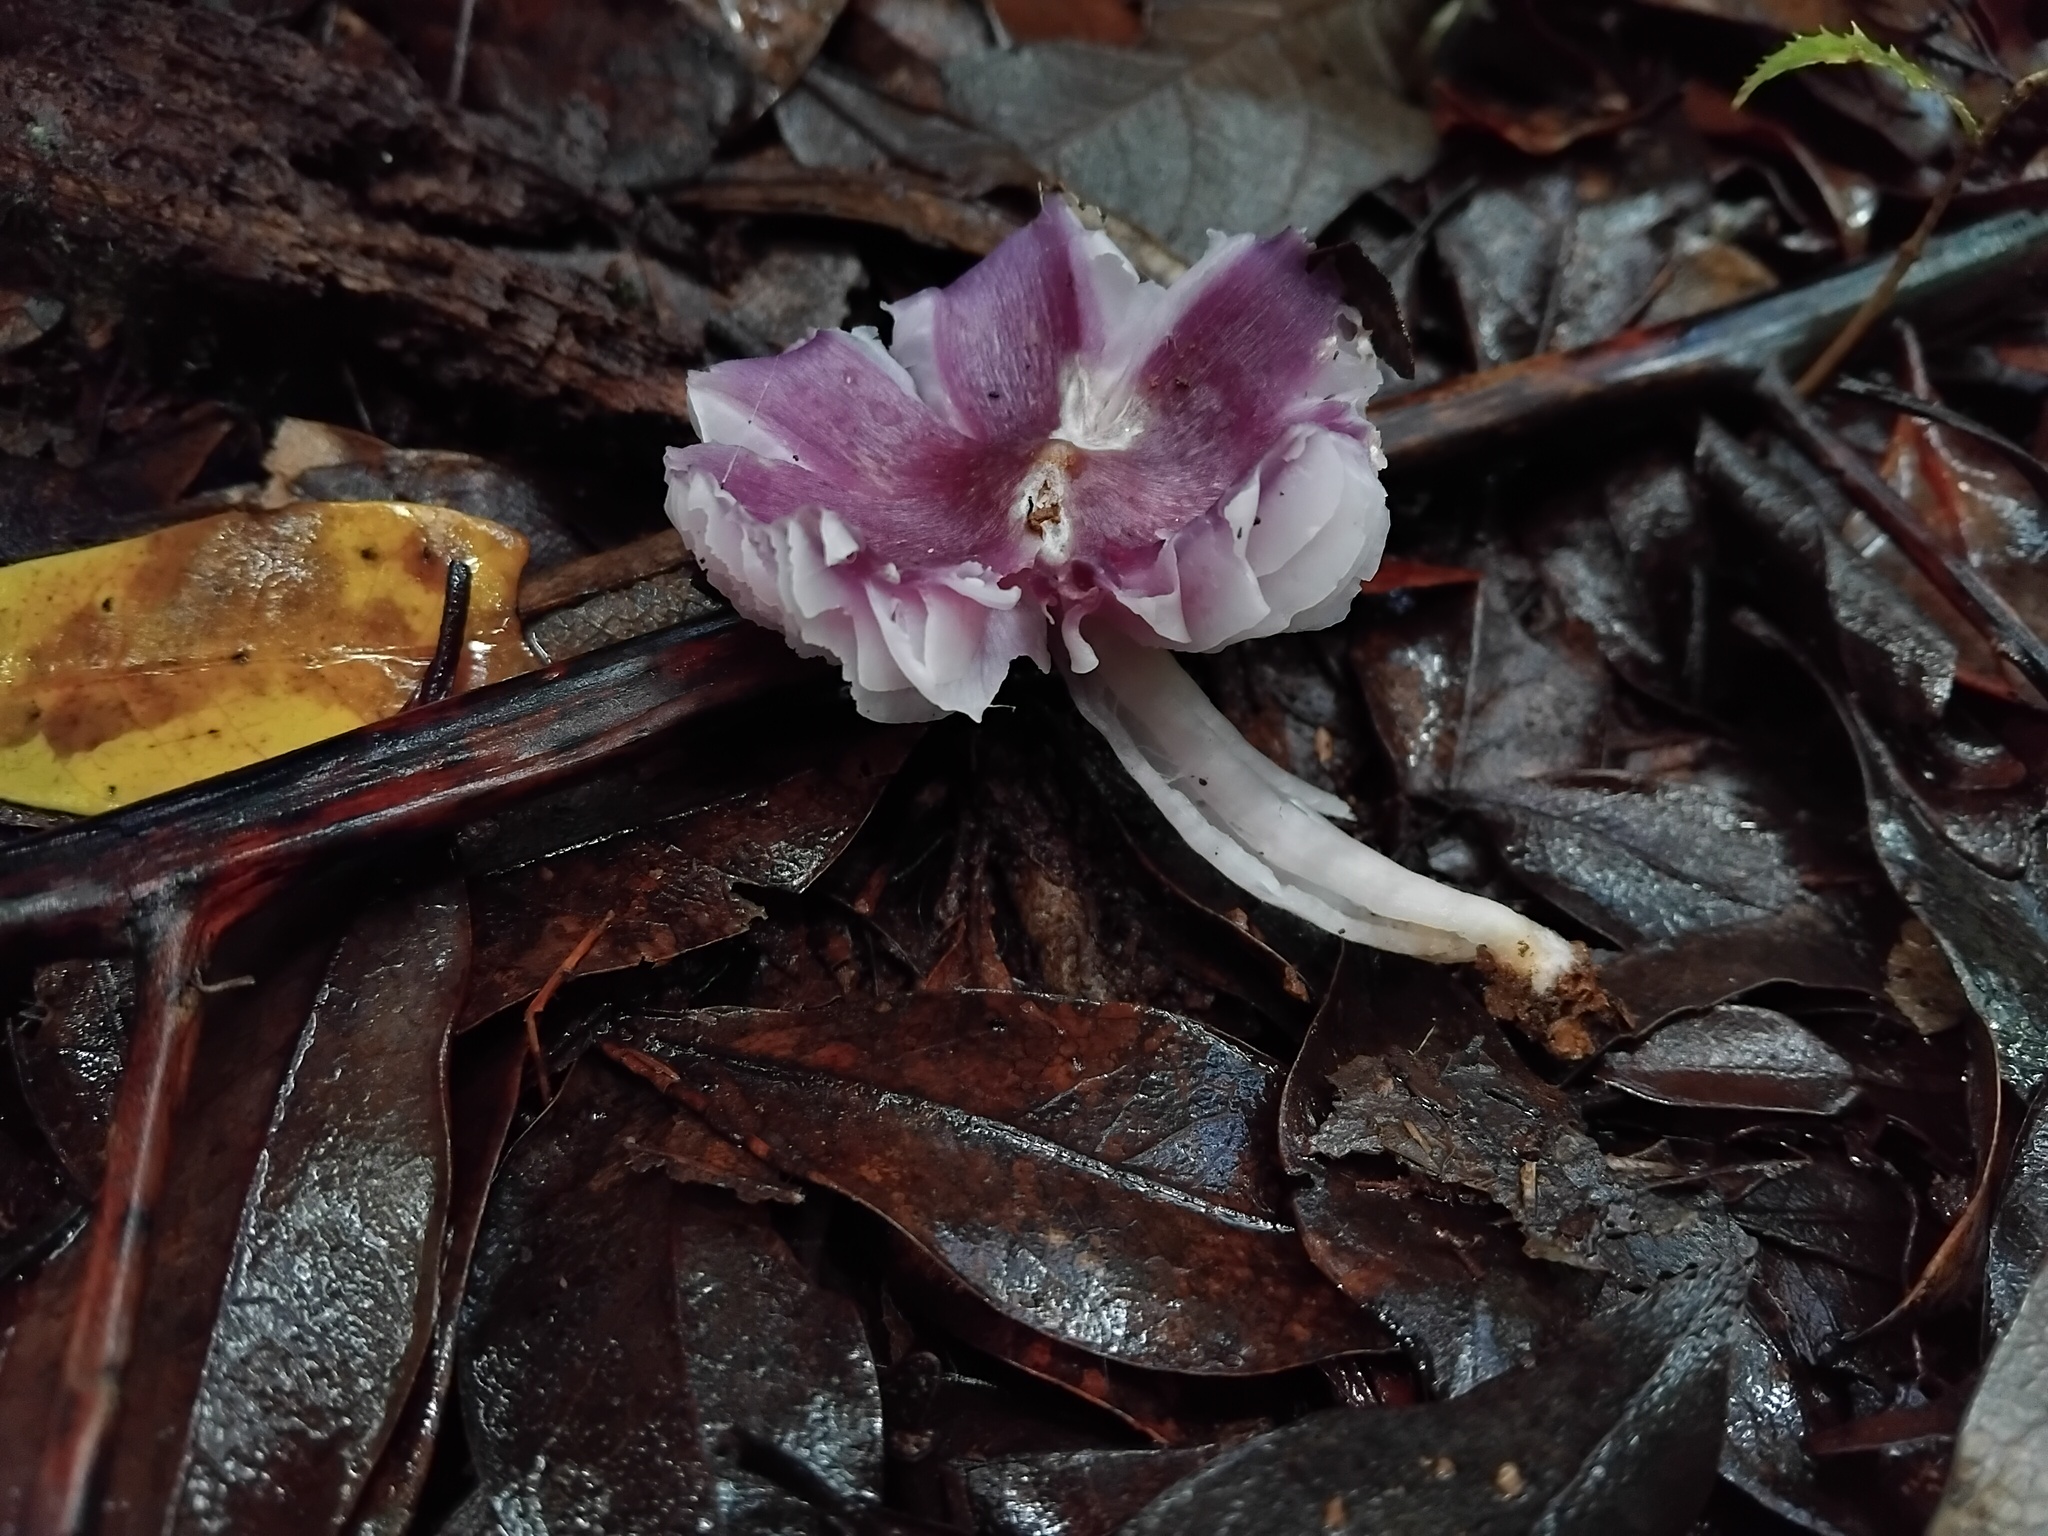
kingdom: Fungi
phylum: Basidiomycota
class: Agaricomycetes
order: Agaricales
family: Hygrophoraceae
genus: Porpolomopsis
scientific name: Porpolomopsis lewelliniae
